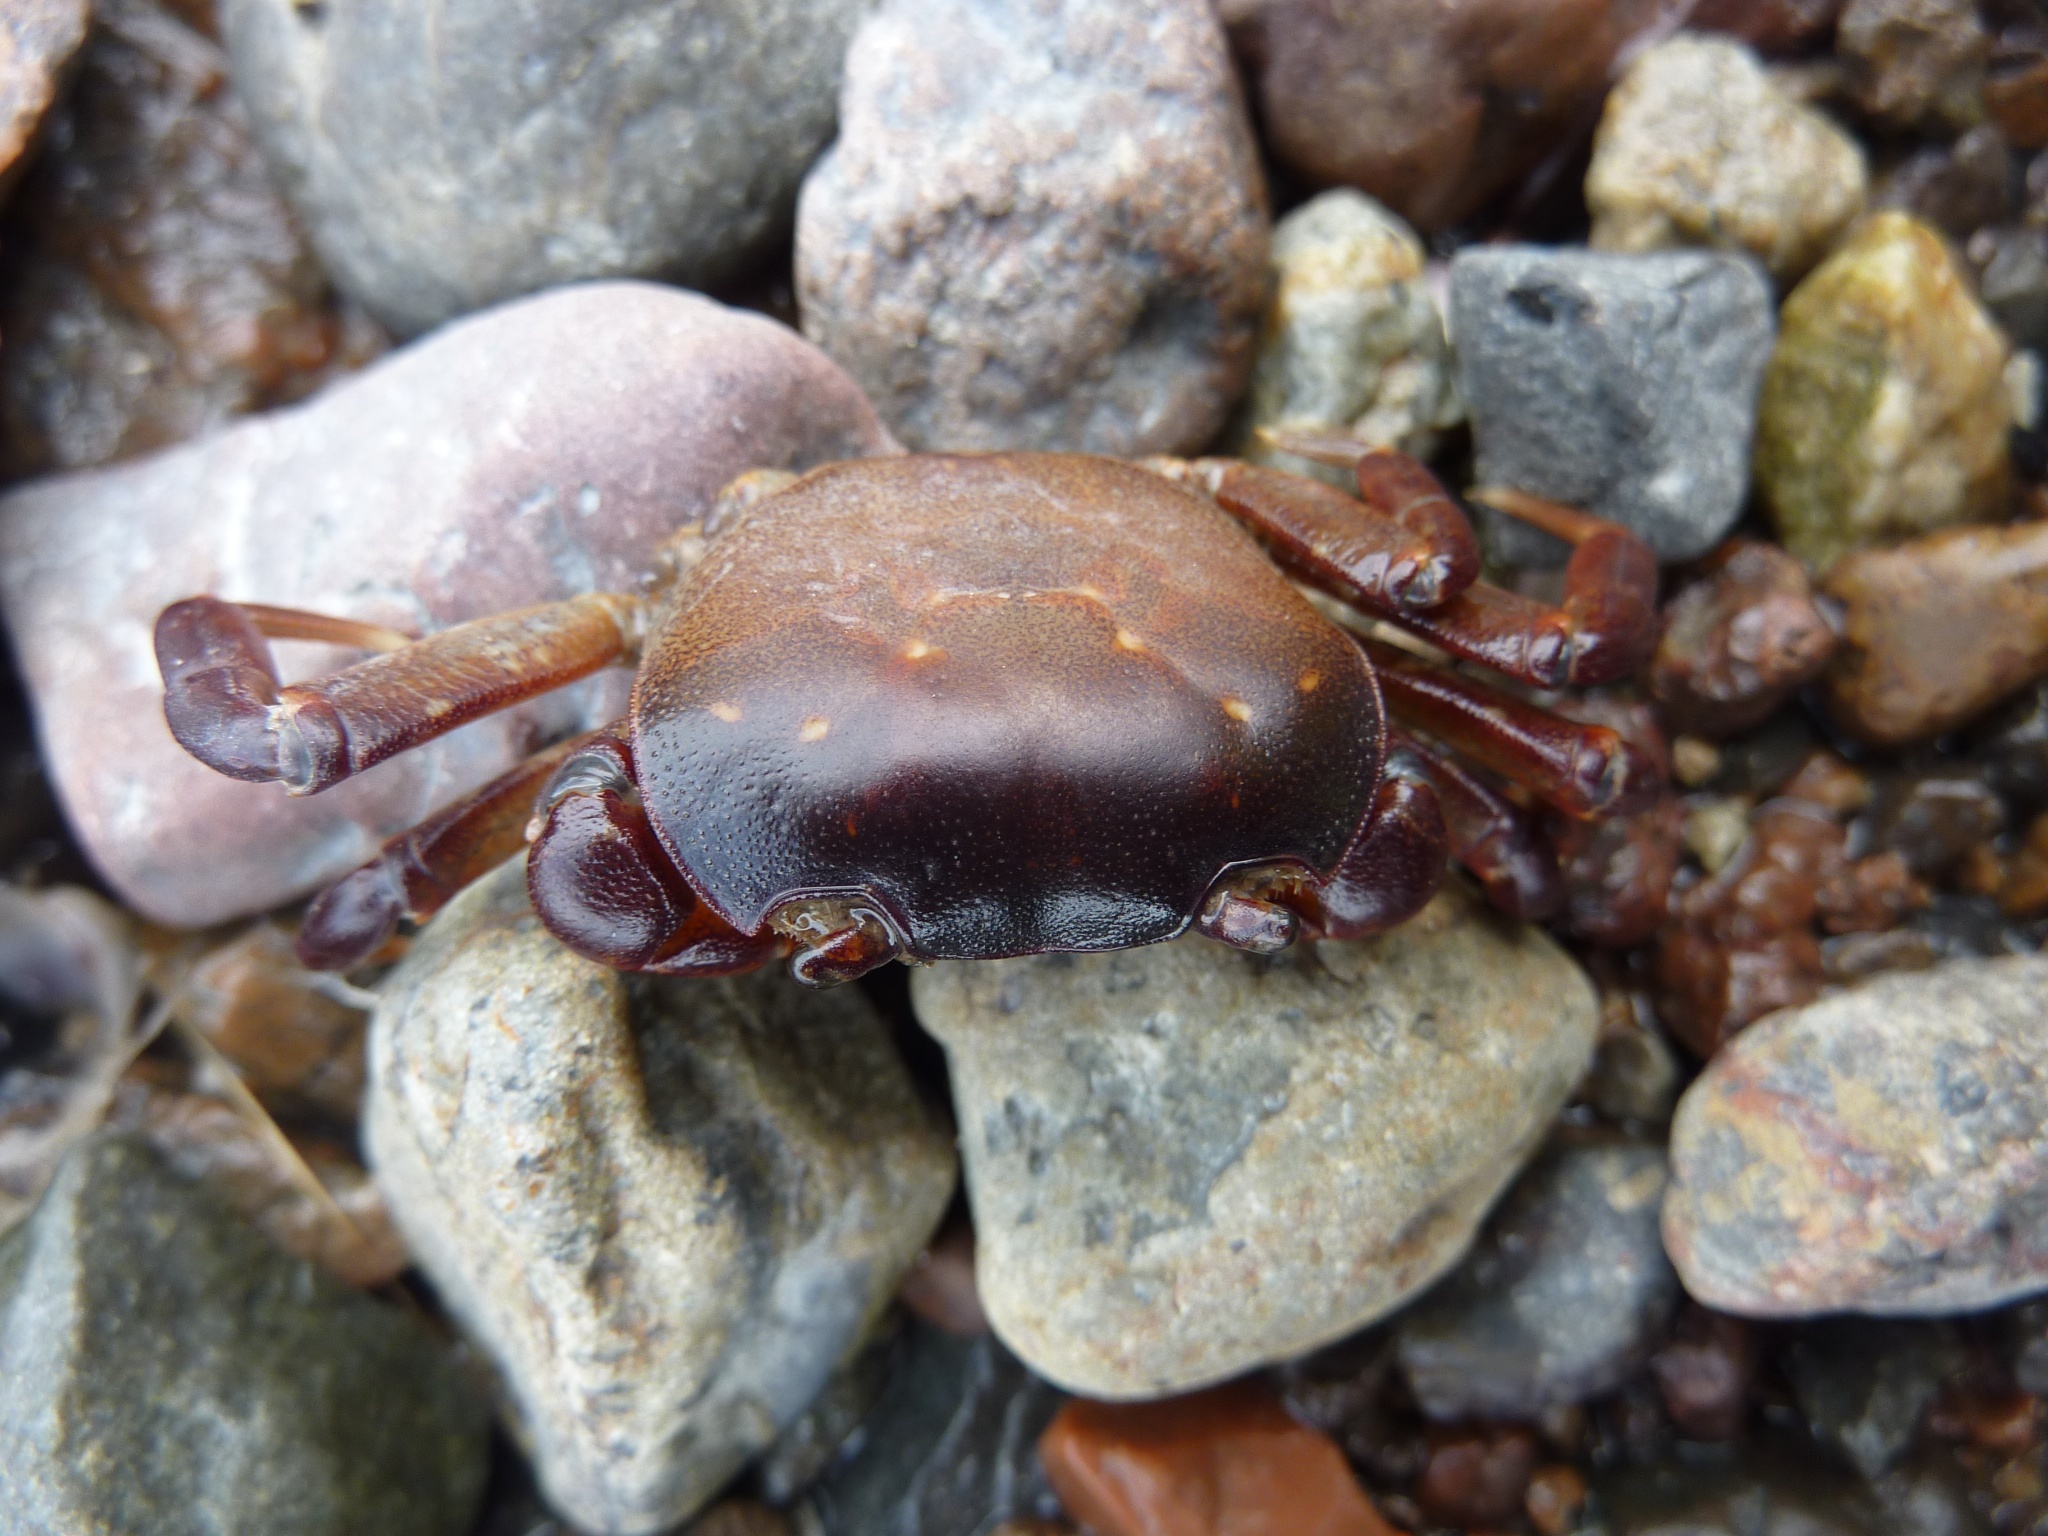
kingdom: Animalia
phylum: Arthropoda
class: Malacostraca
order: Decapoda
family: Varunidae
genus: Cyclograpsus
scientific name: Cyclograpsus lavauxi
